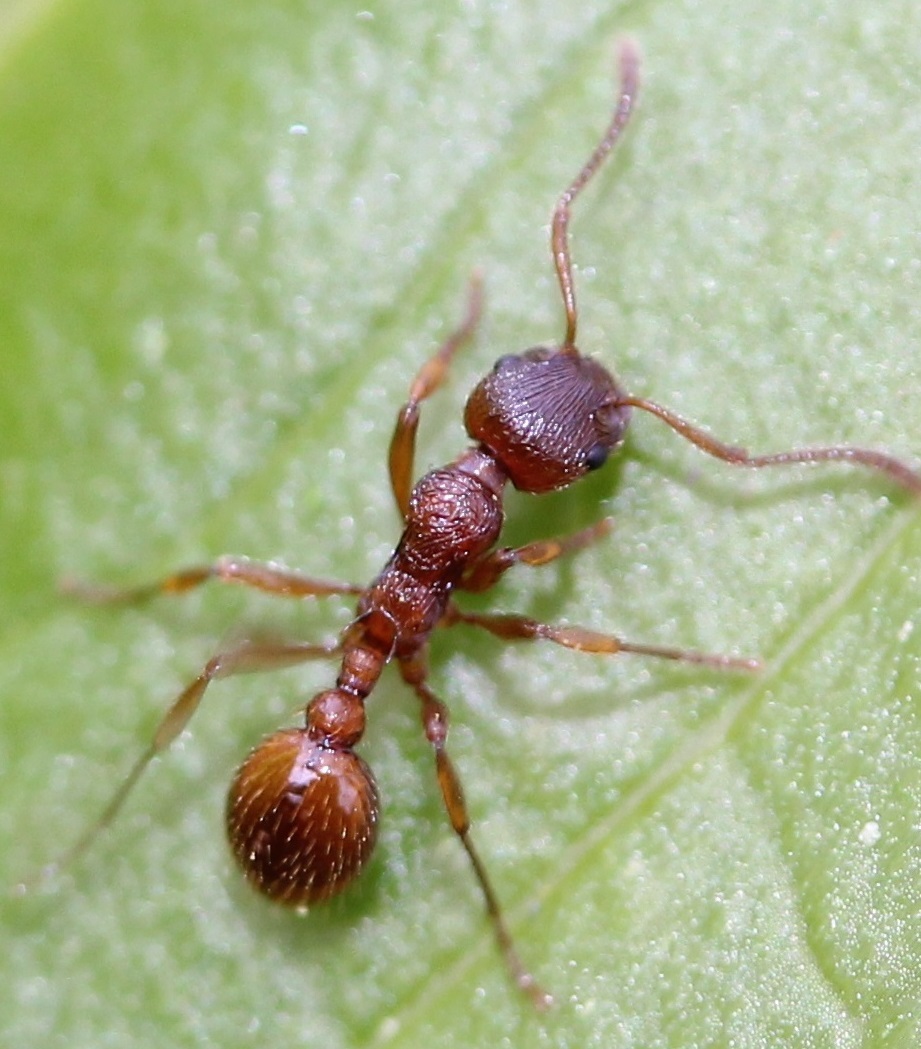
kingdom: Animalia
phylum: Arthropoda
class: Insecta
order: Hymenoptera
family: Formicidae
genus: Myrmica
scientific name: Myrmica rubra
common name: European fire ant
